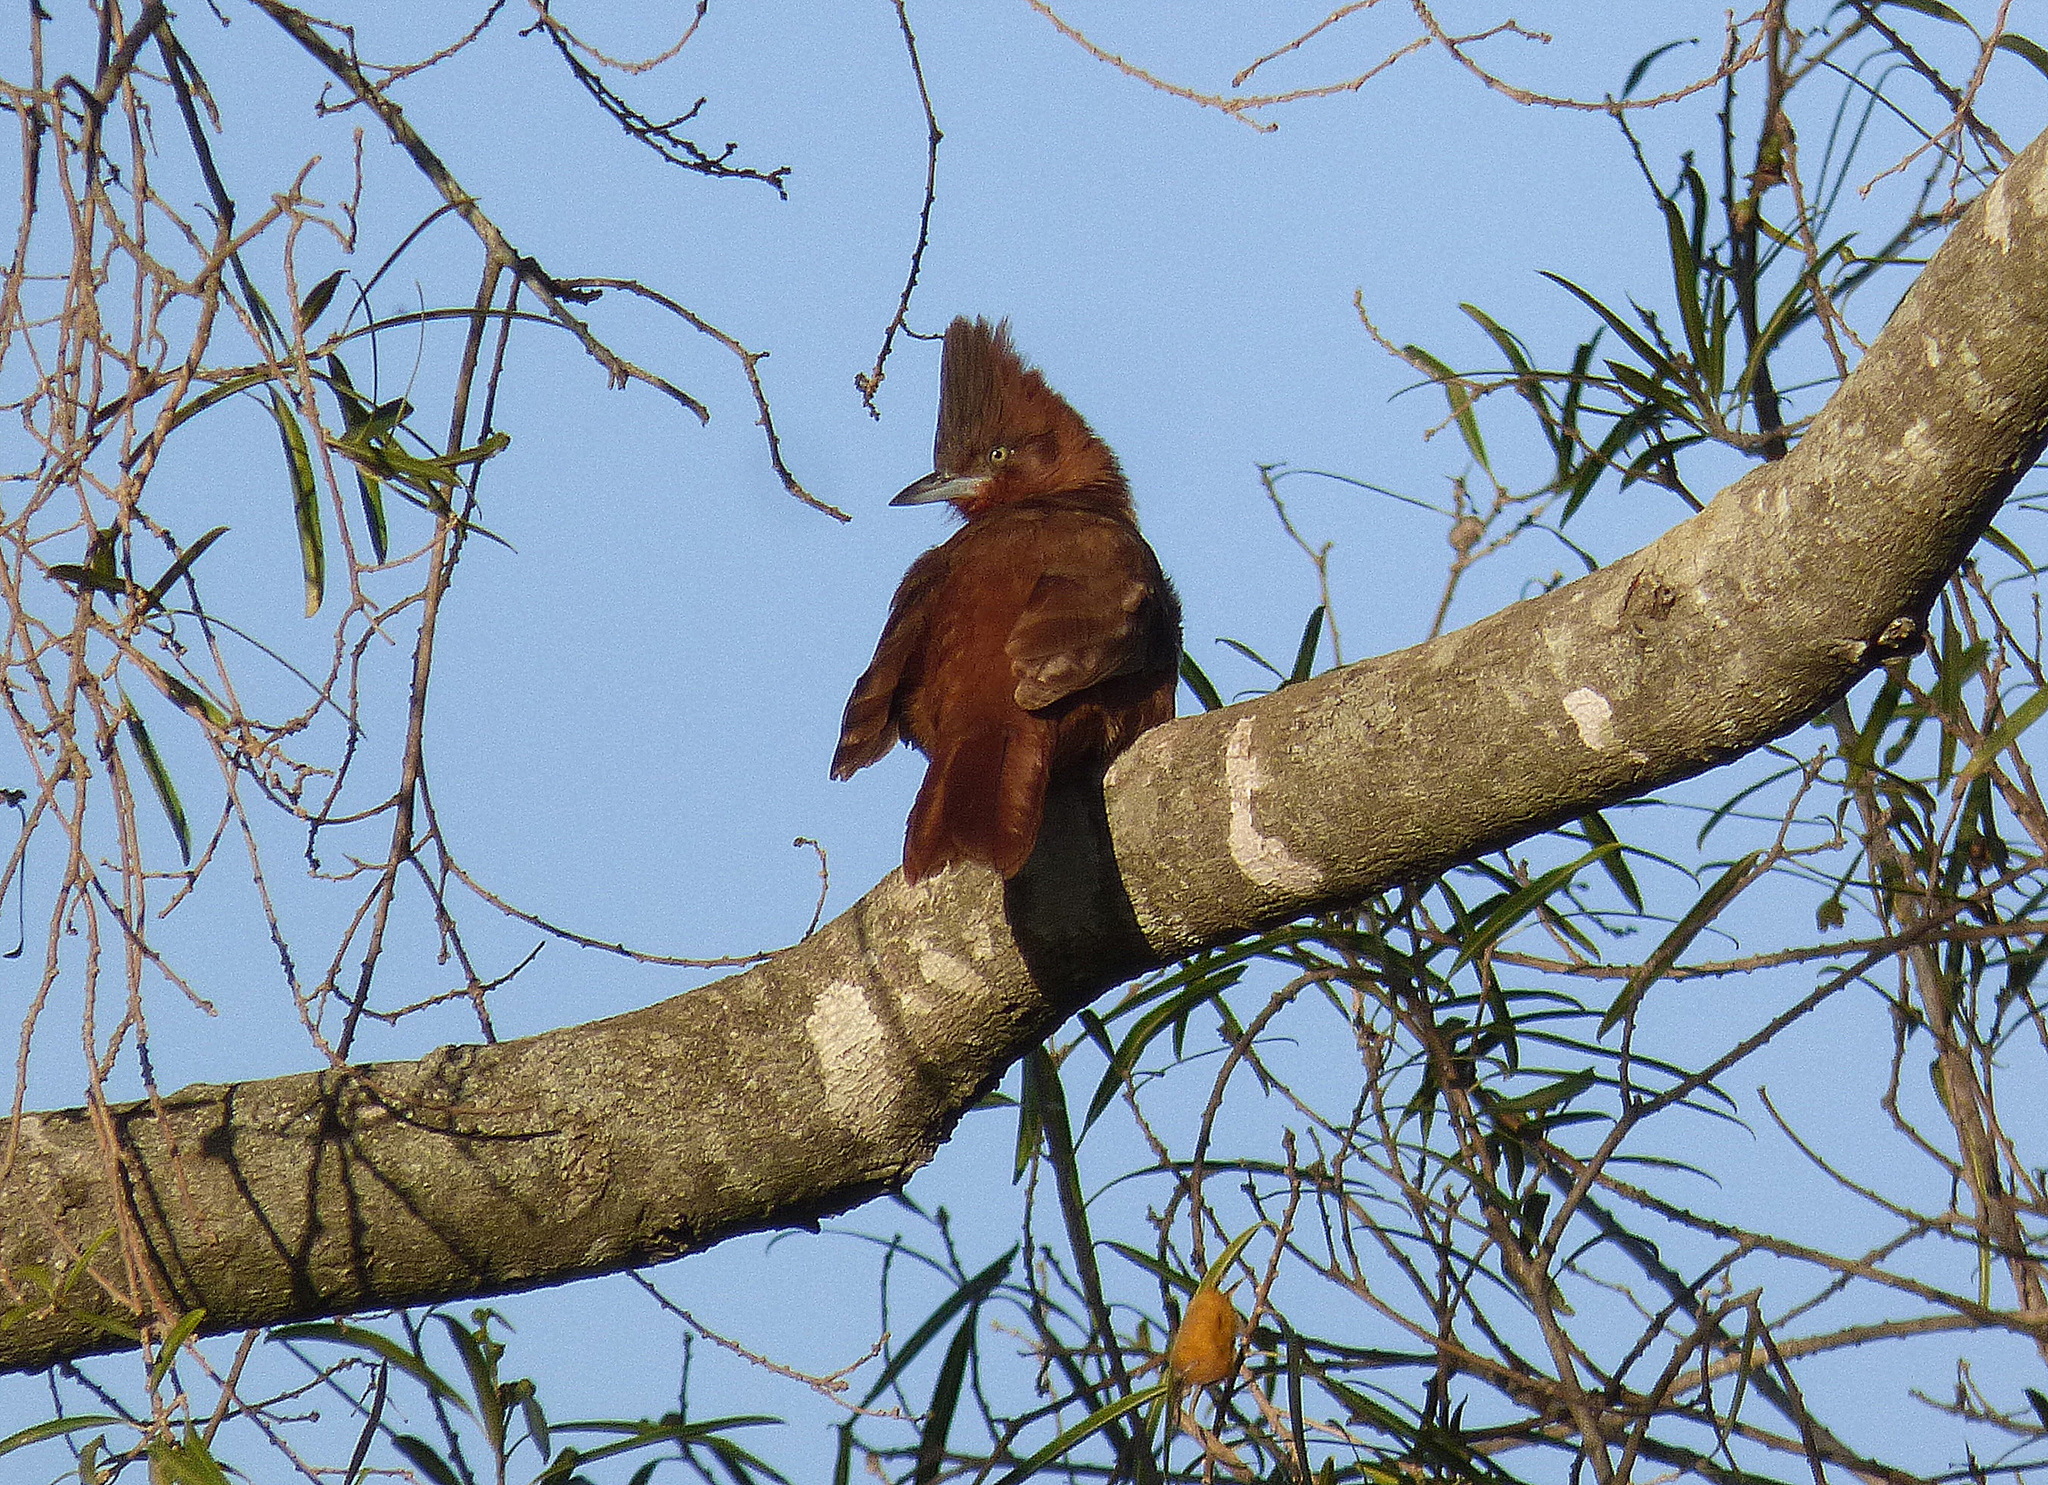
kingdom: Animalia
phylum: Chordata
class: Aves
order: Passeriformes
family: Furnariidae
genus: Pseudoseisura
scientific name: Pseudoseisura lophotes
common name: Brown cacholote
